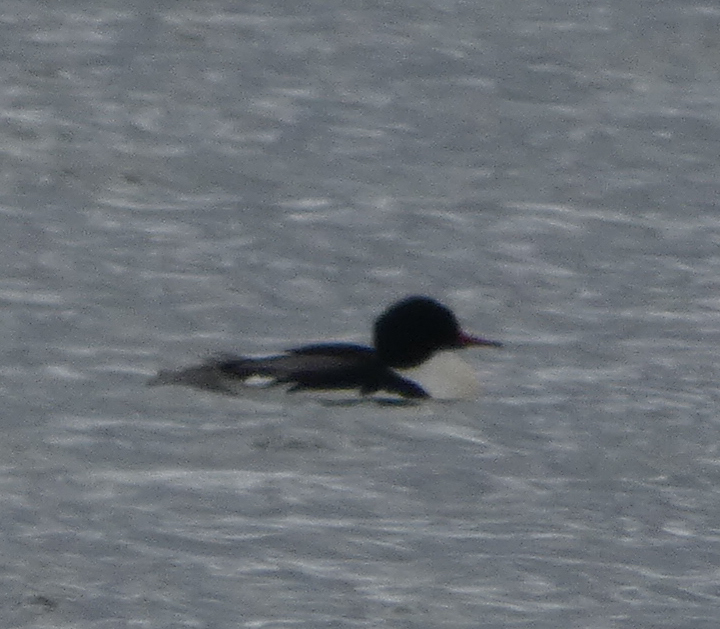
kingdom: Animalia
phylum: Chordata
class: Aves
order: Anseriformes
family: Anatidae
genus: Mergus
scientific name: Mergus merganser
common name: Common merganser
